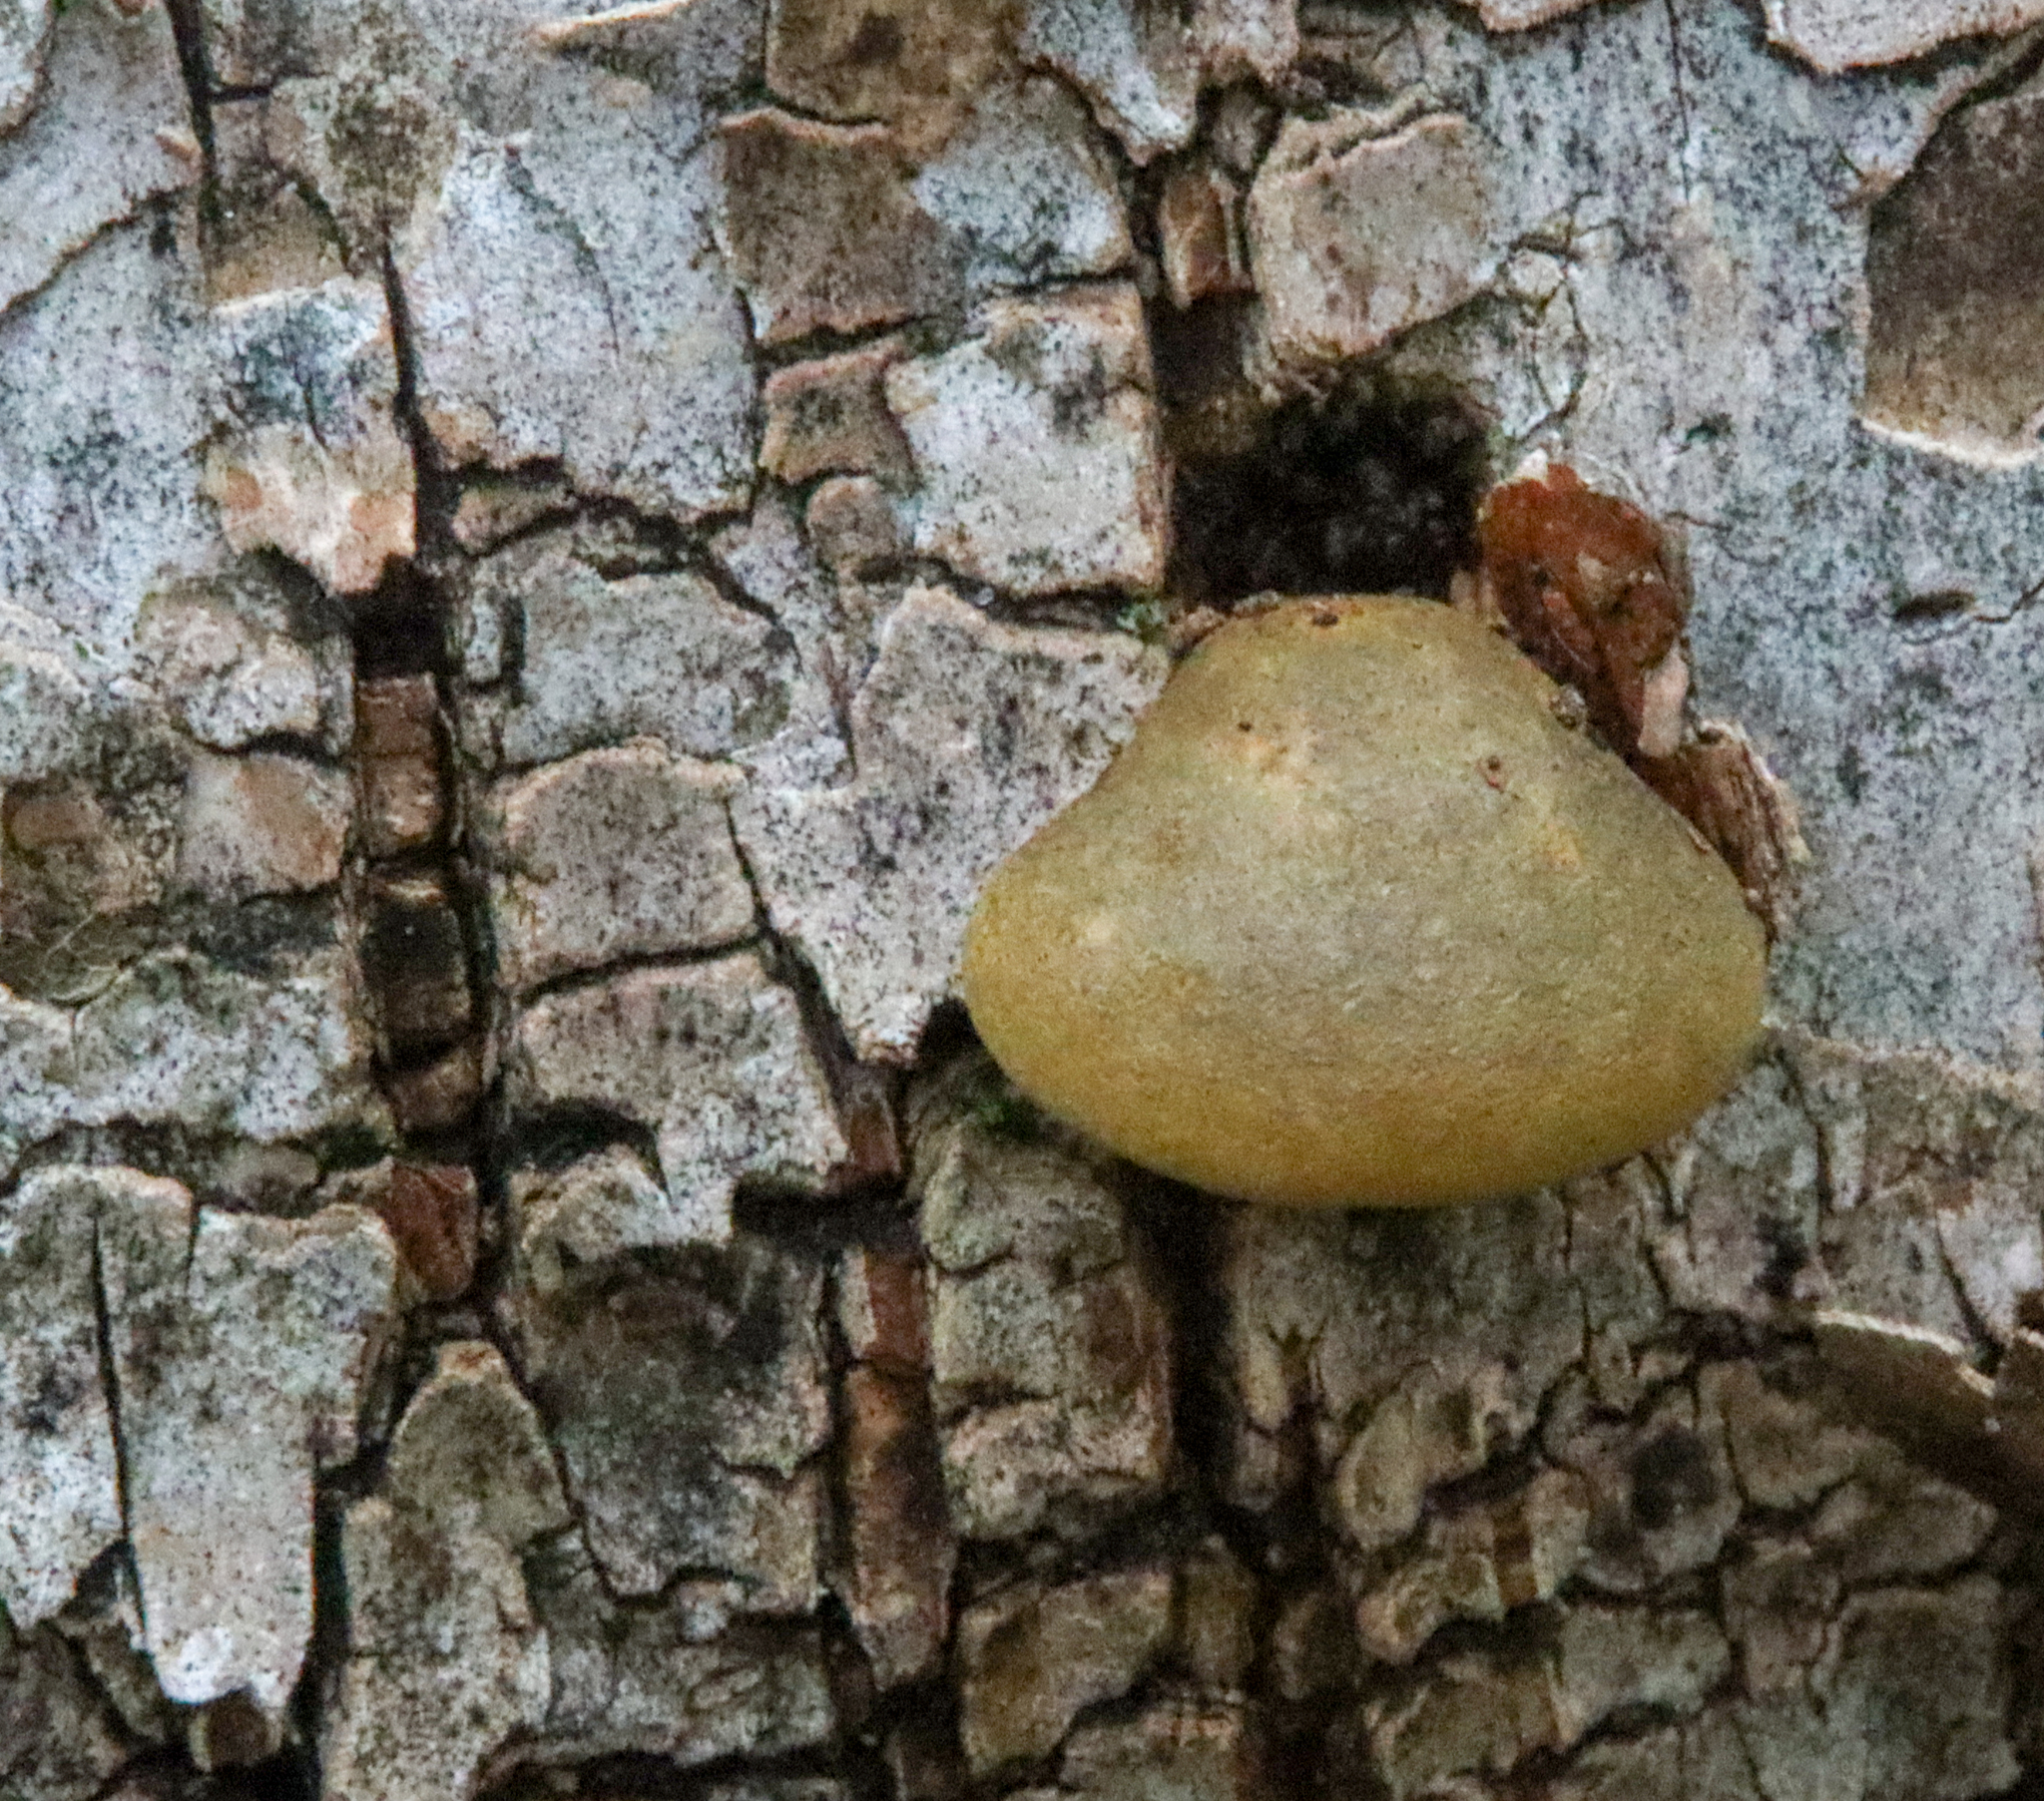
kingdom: Fungi
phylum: Basidiomycota
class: Agaricomycetes
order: Agaricales
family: Sarcomyxaceae
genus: Sarcomyxa
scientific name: Sarcomyxa serotina
